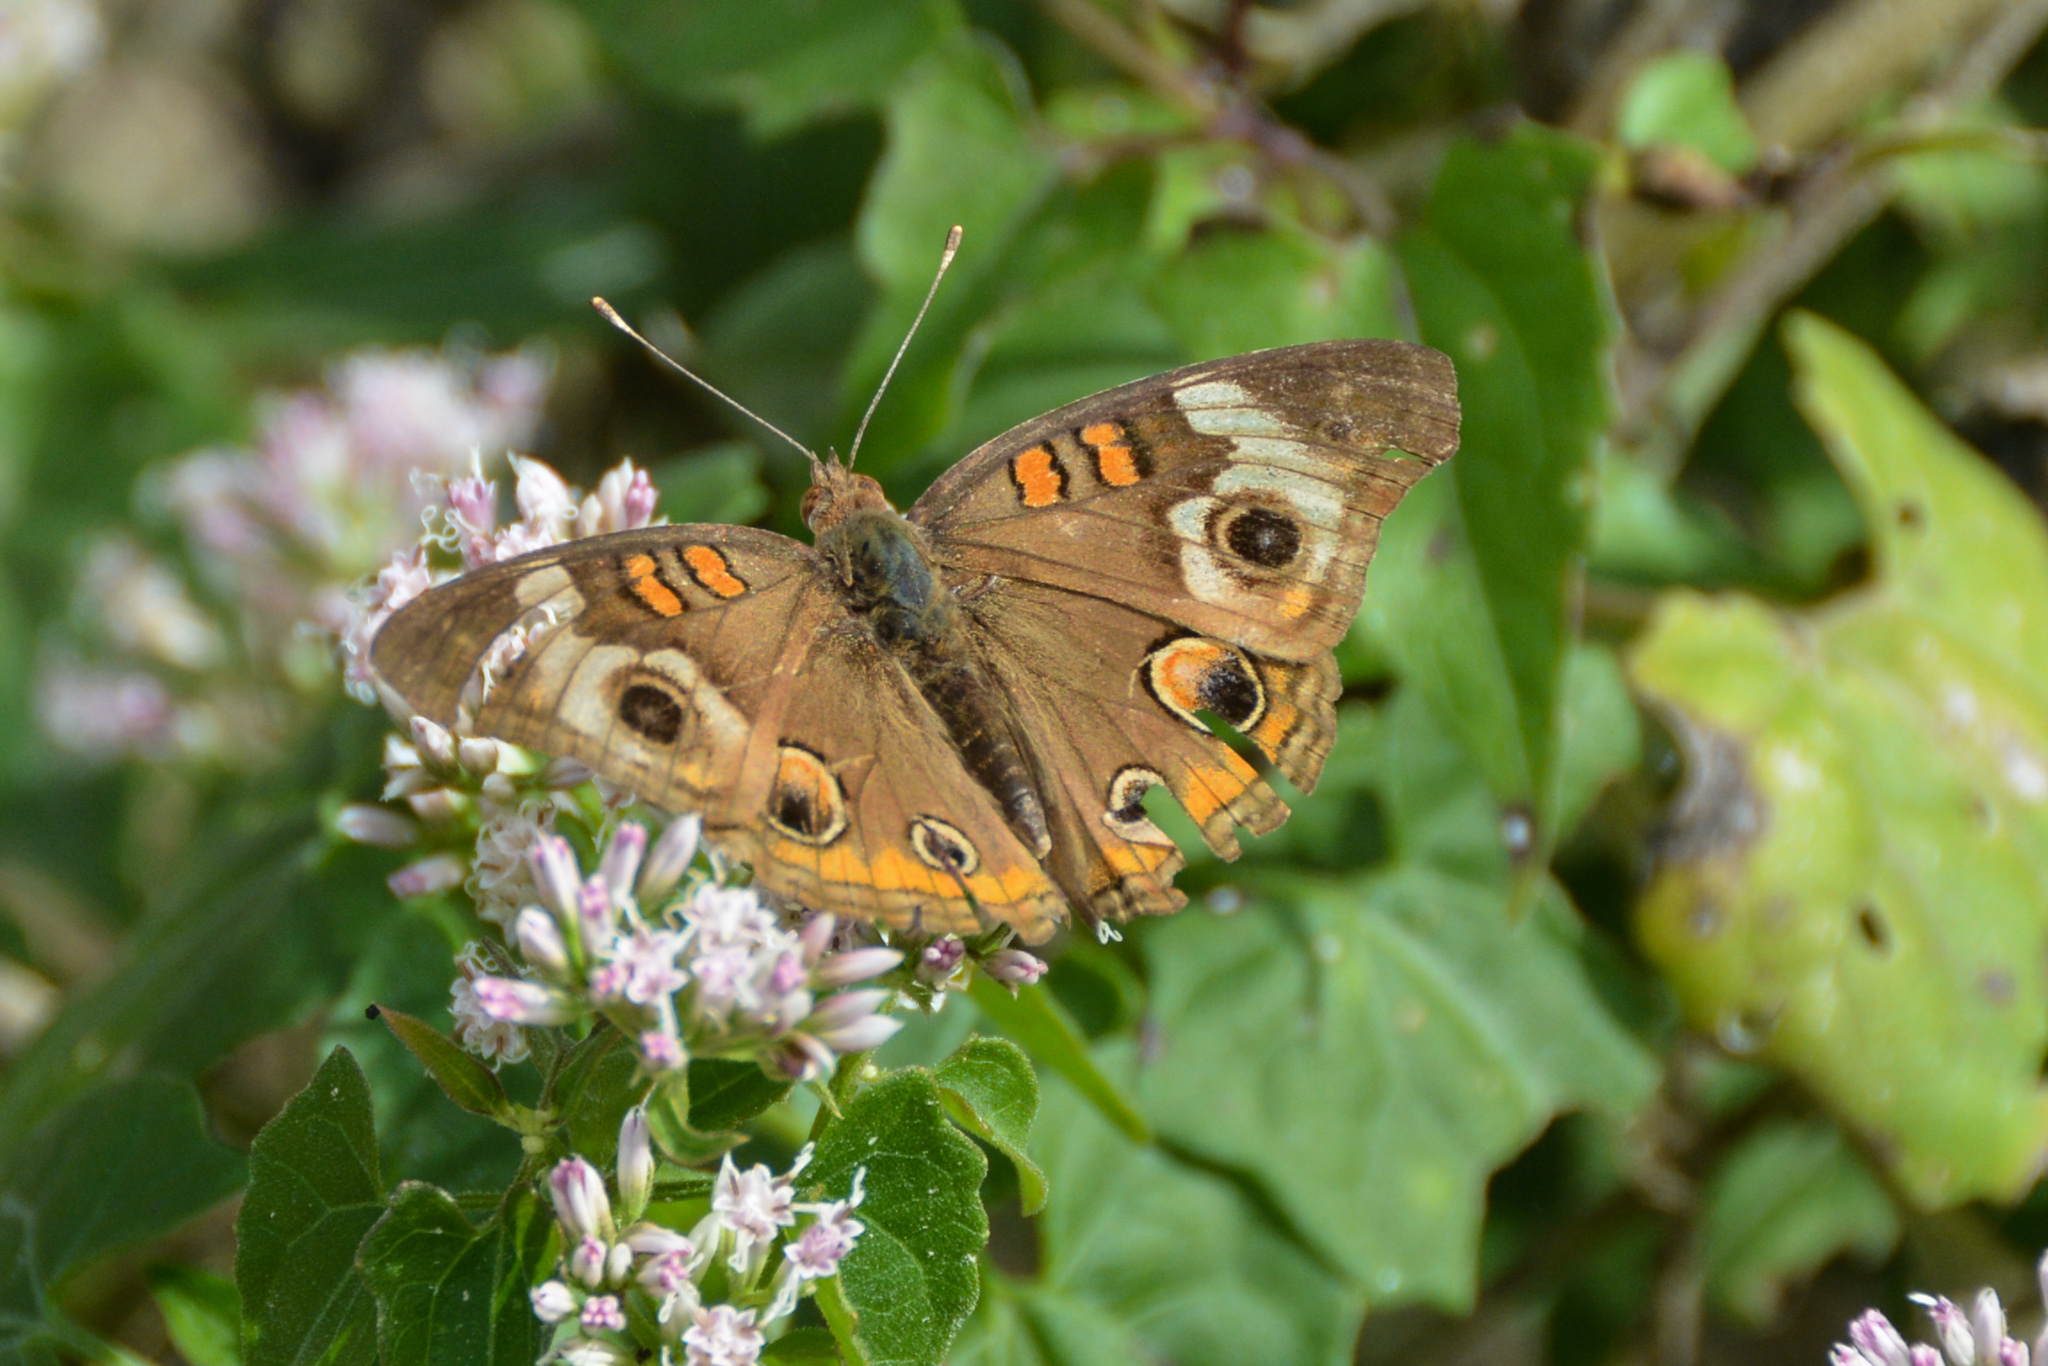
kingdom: Animalia
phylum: Arthropoda
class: Insecta
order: Lepidoptera
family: Nymphalidae
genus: Junonia
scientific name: Junonia coenia
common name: Common buckeye
